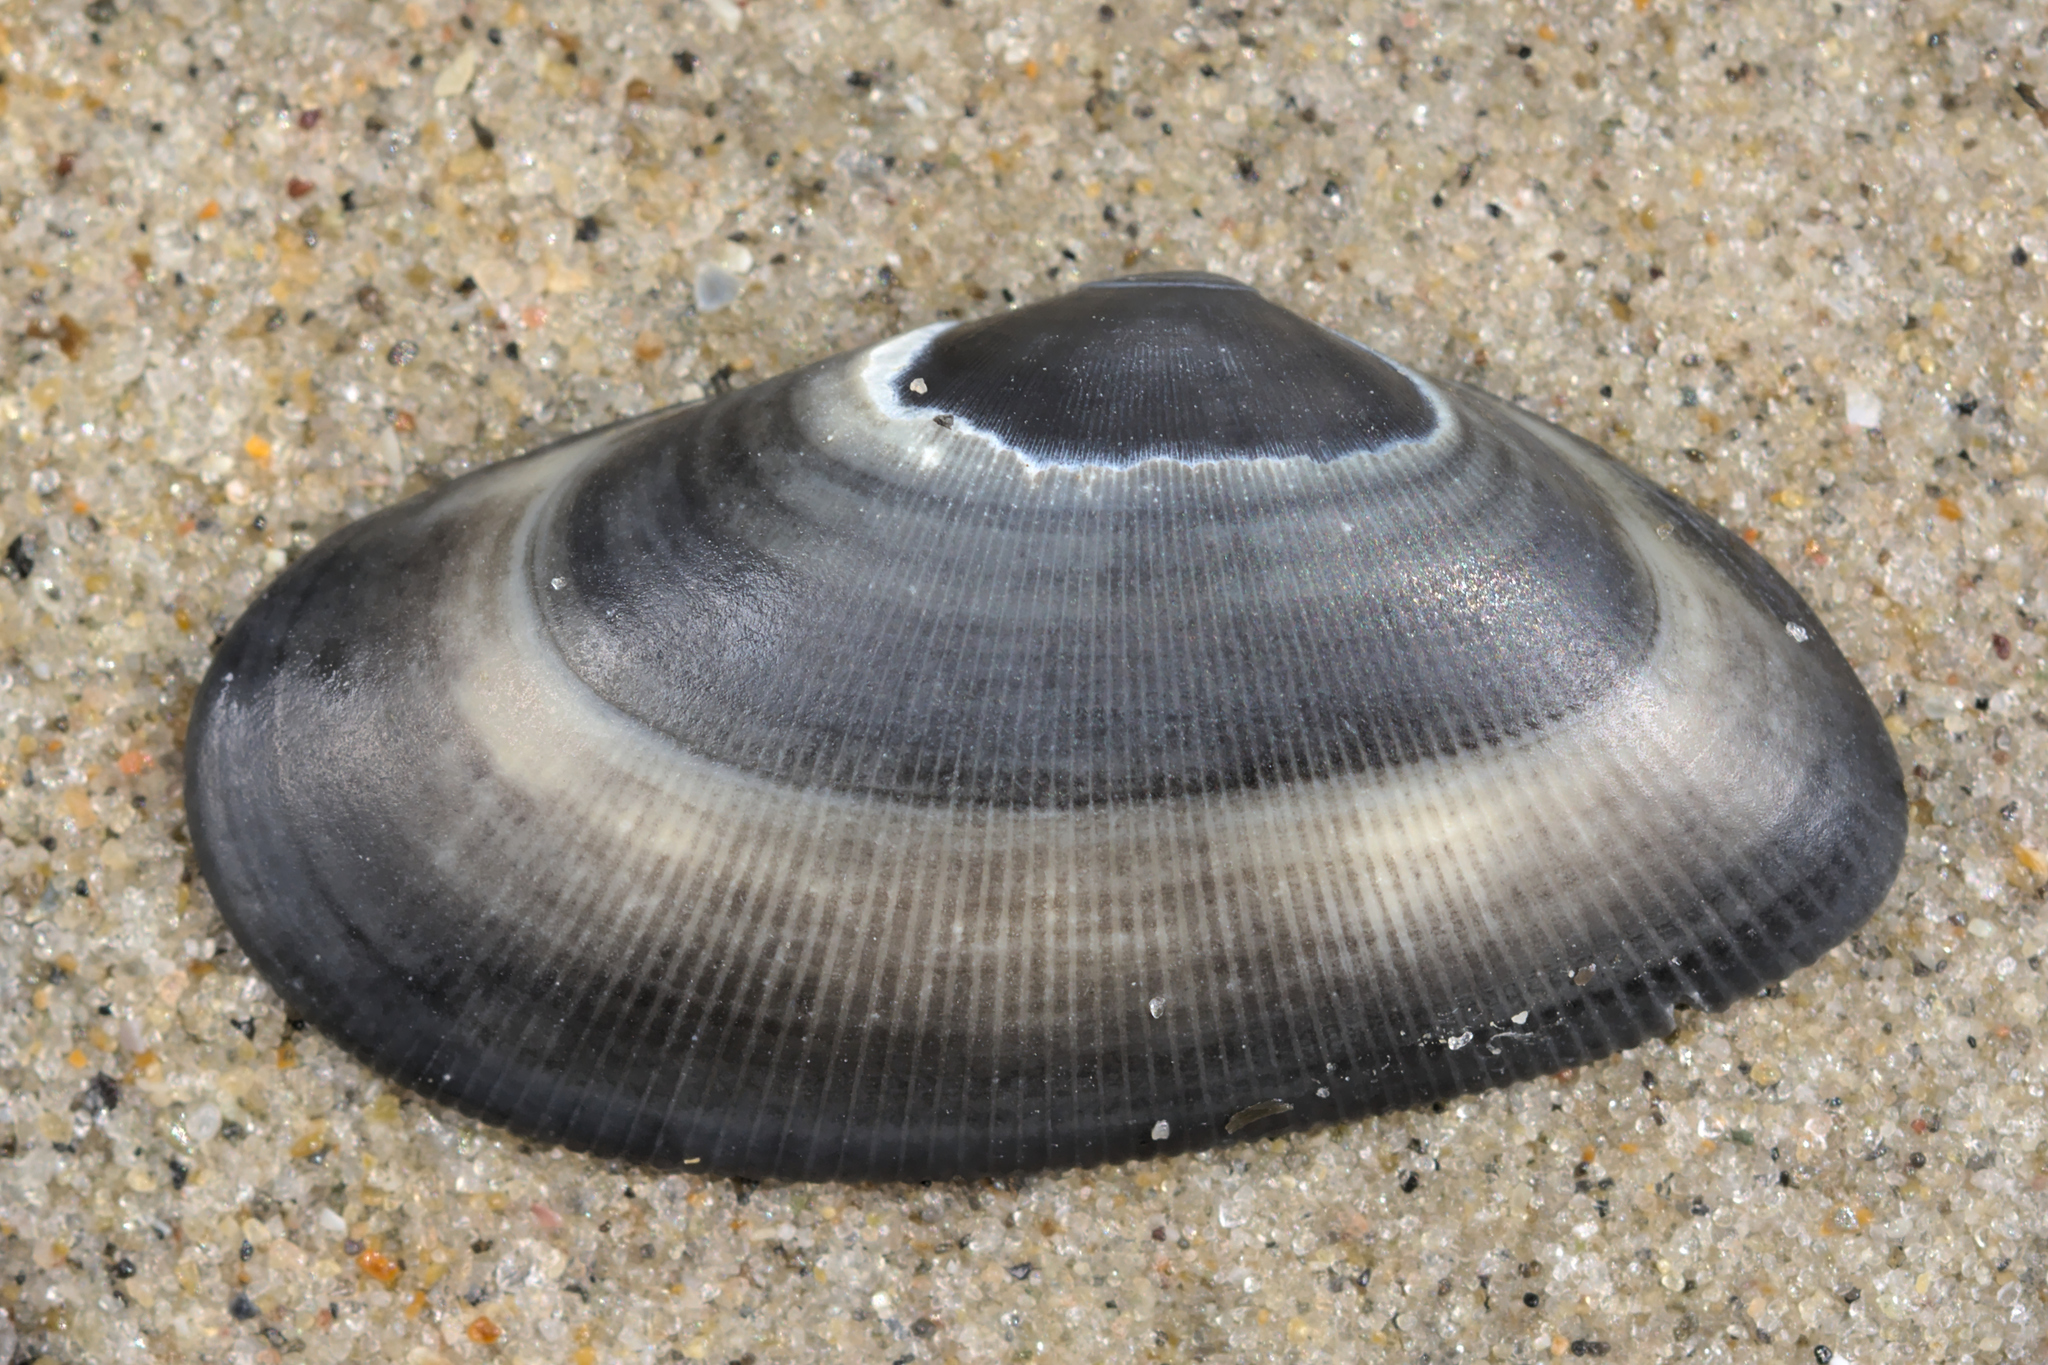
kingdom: Animalia
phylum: Mollusca
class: Bivalvia
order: Cardiida
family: Donacidae
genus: Donax
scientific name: Donax vittatus
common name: Banded wedge-shell
